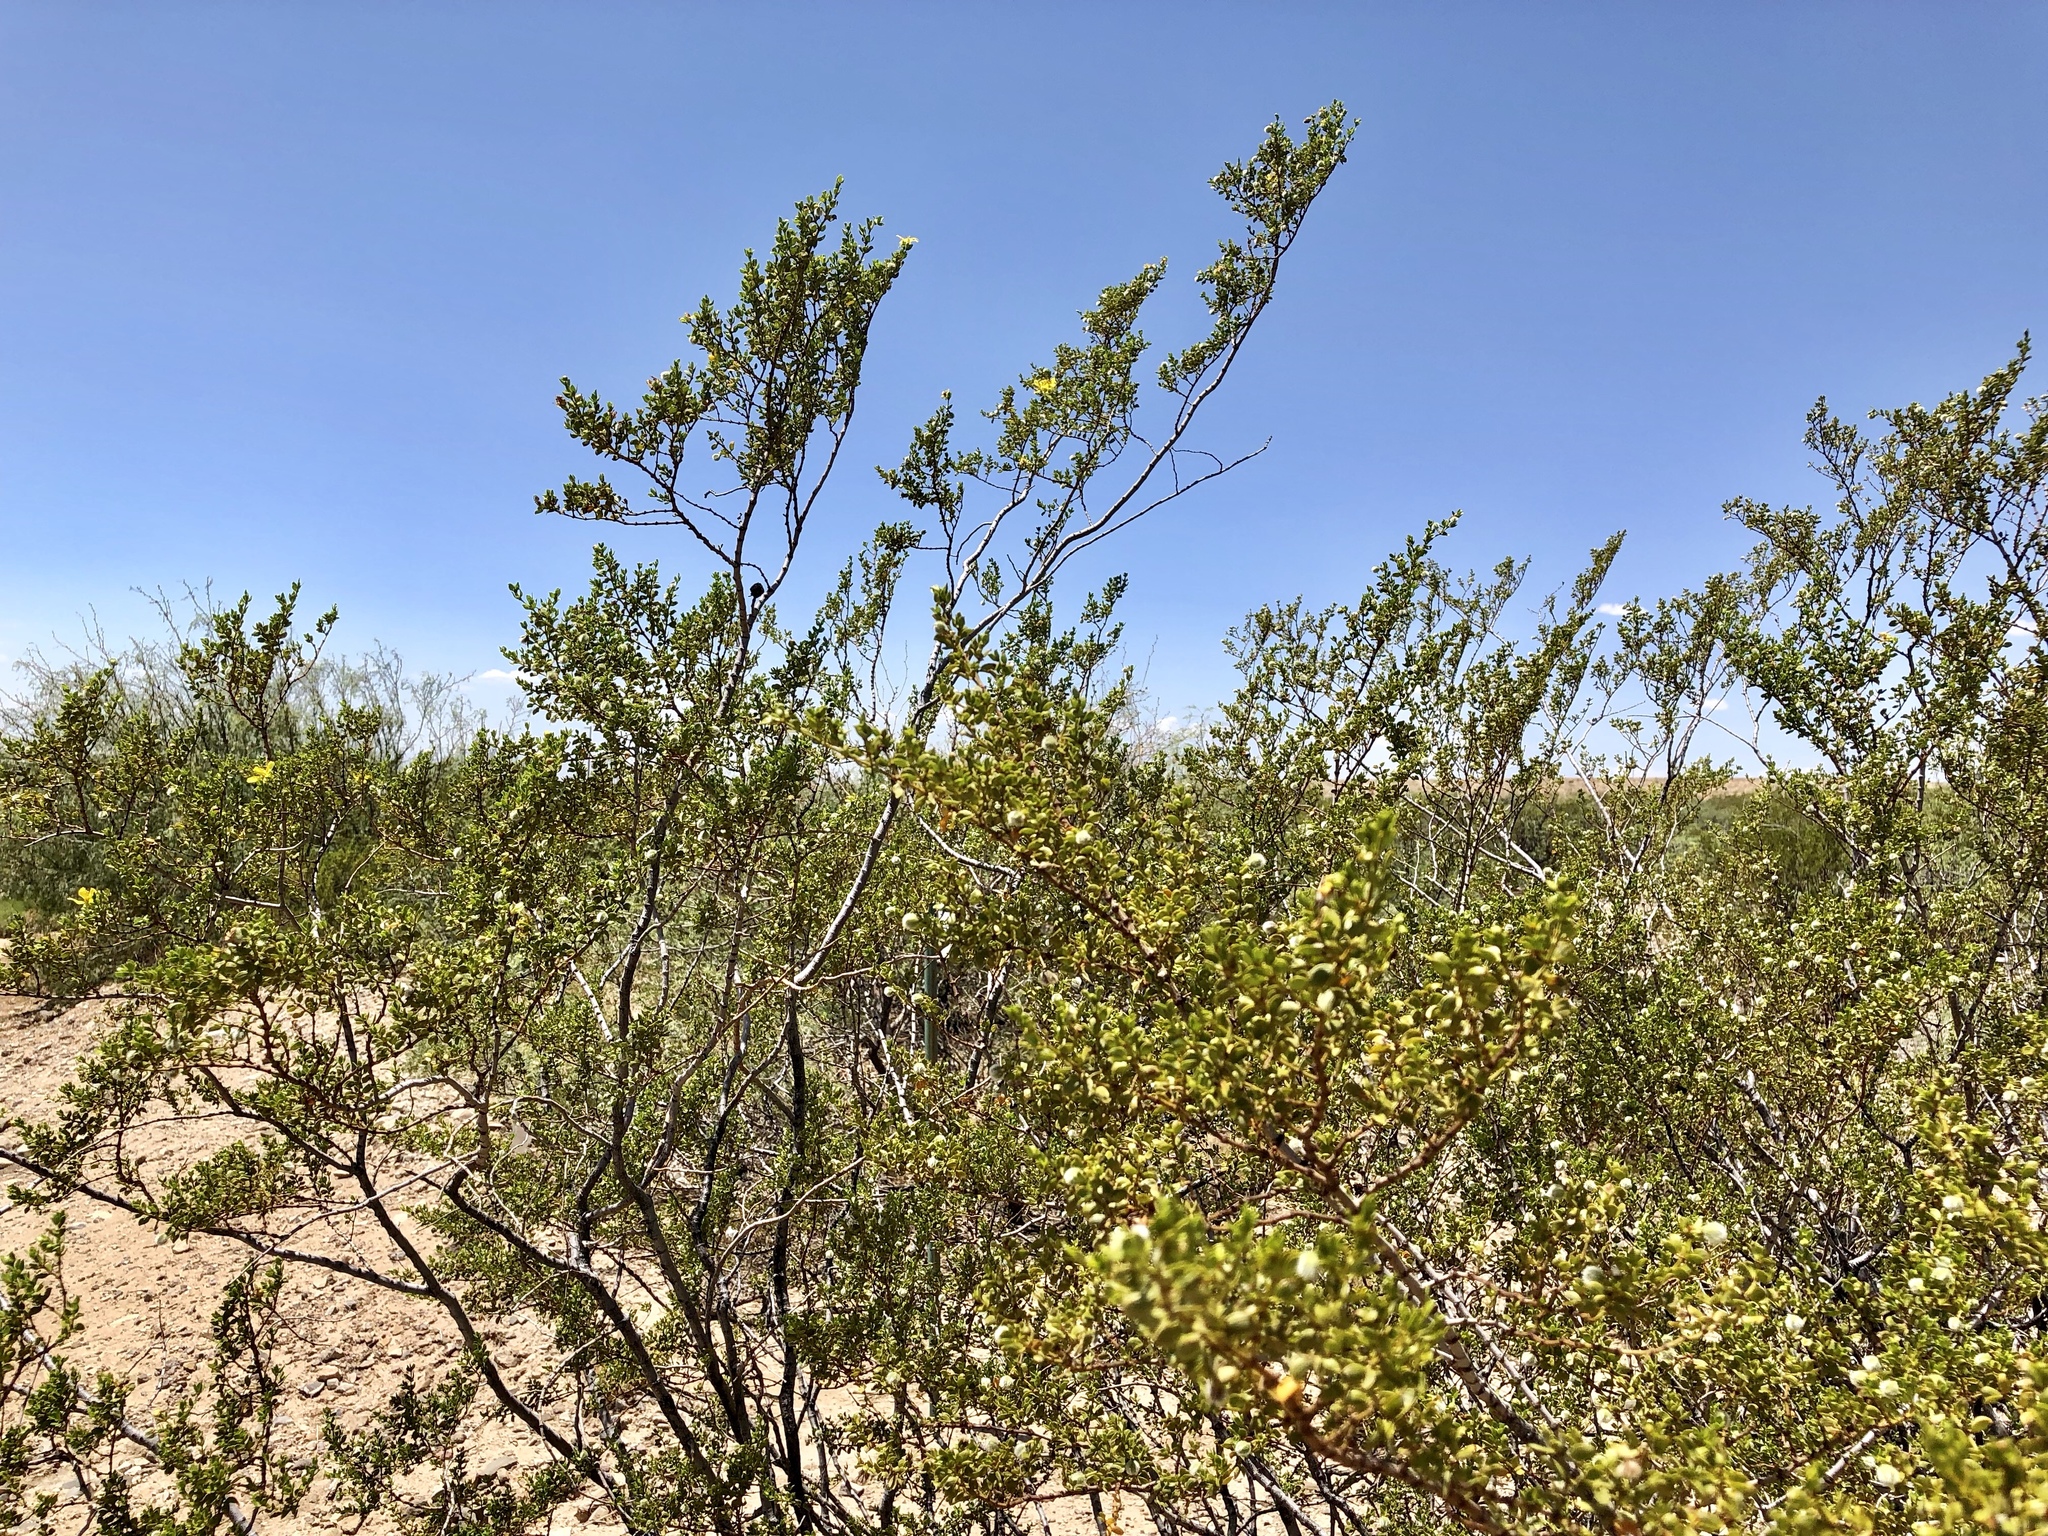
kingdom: Plantae
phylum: Tracheophyta
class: Magnoliopsida
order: Zygophyllales
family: Zygophyllaceae
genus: Larrea
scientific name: Larrea tridentata
